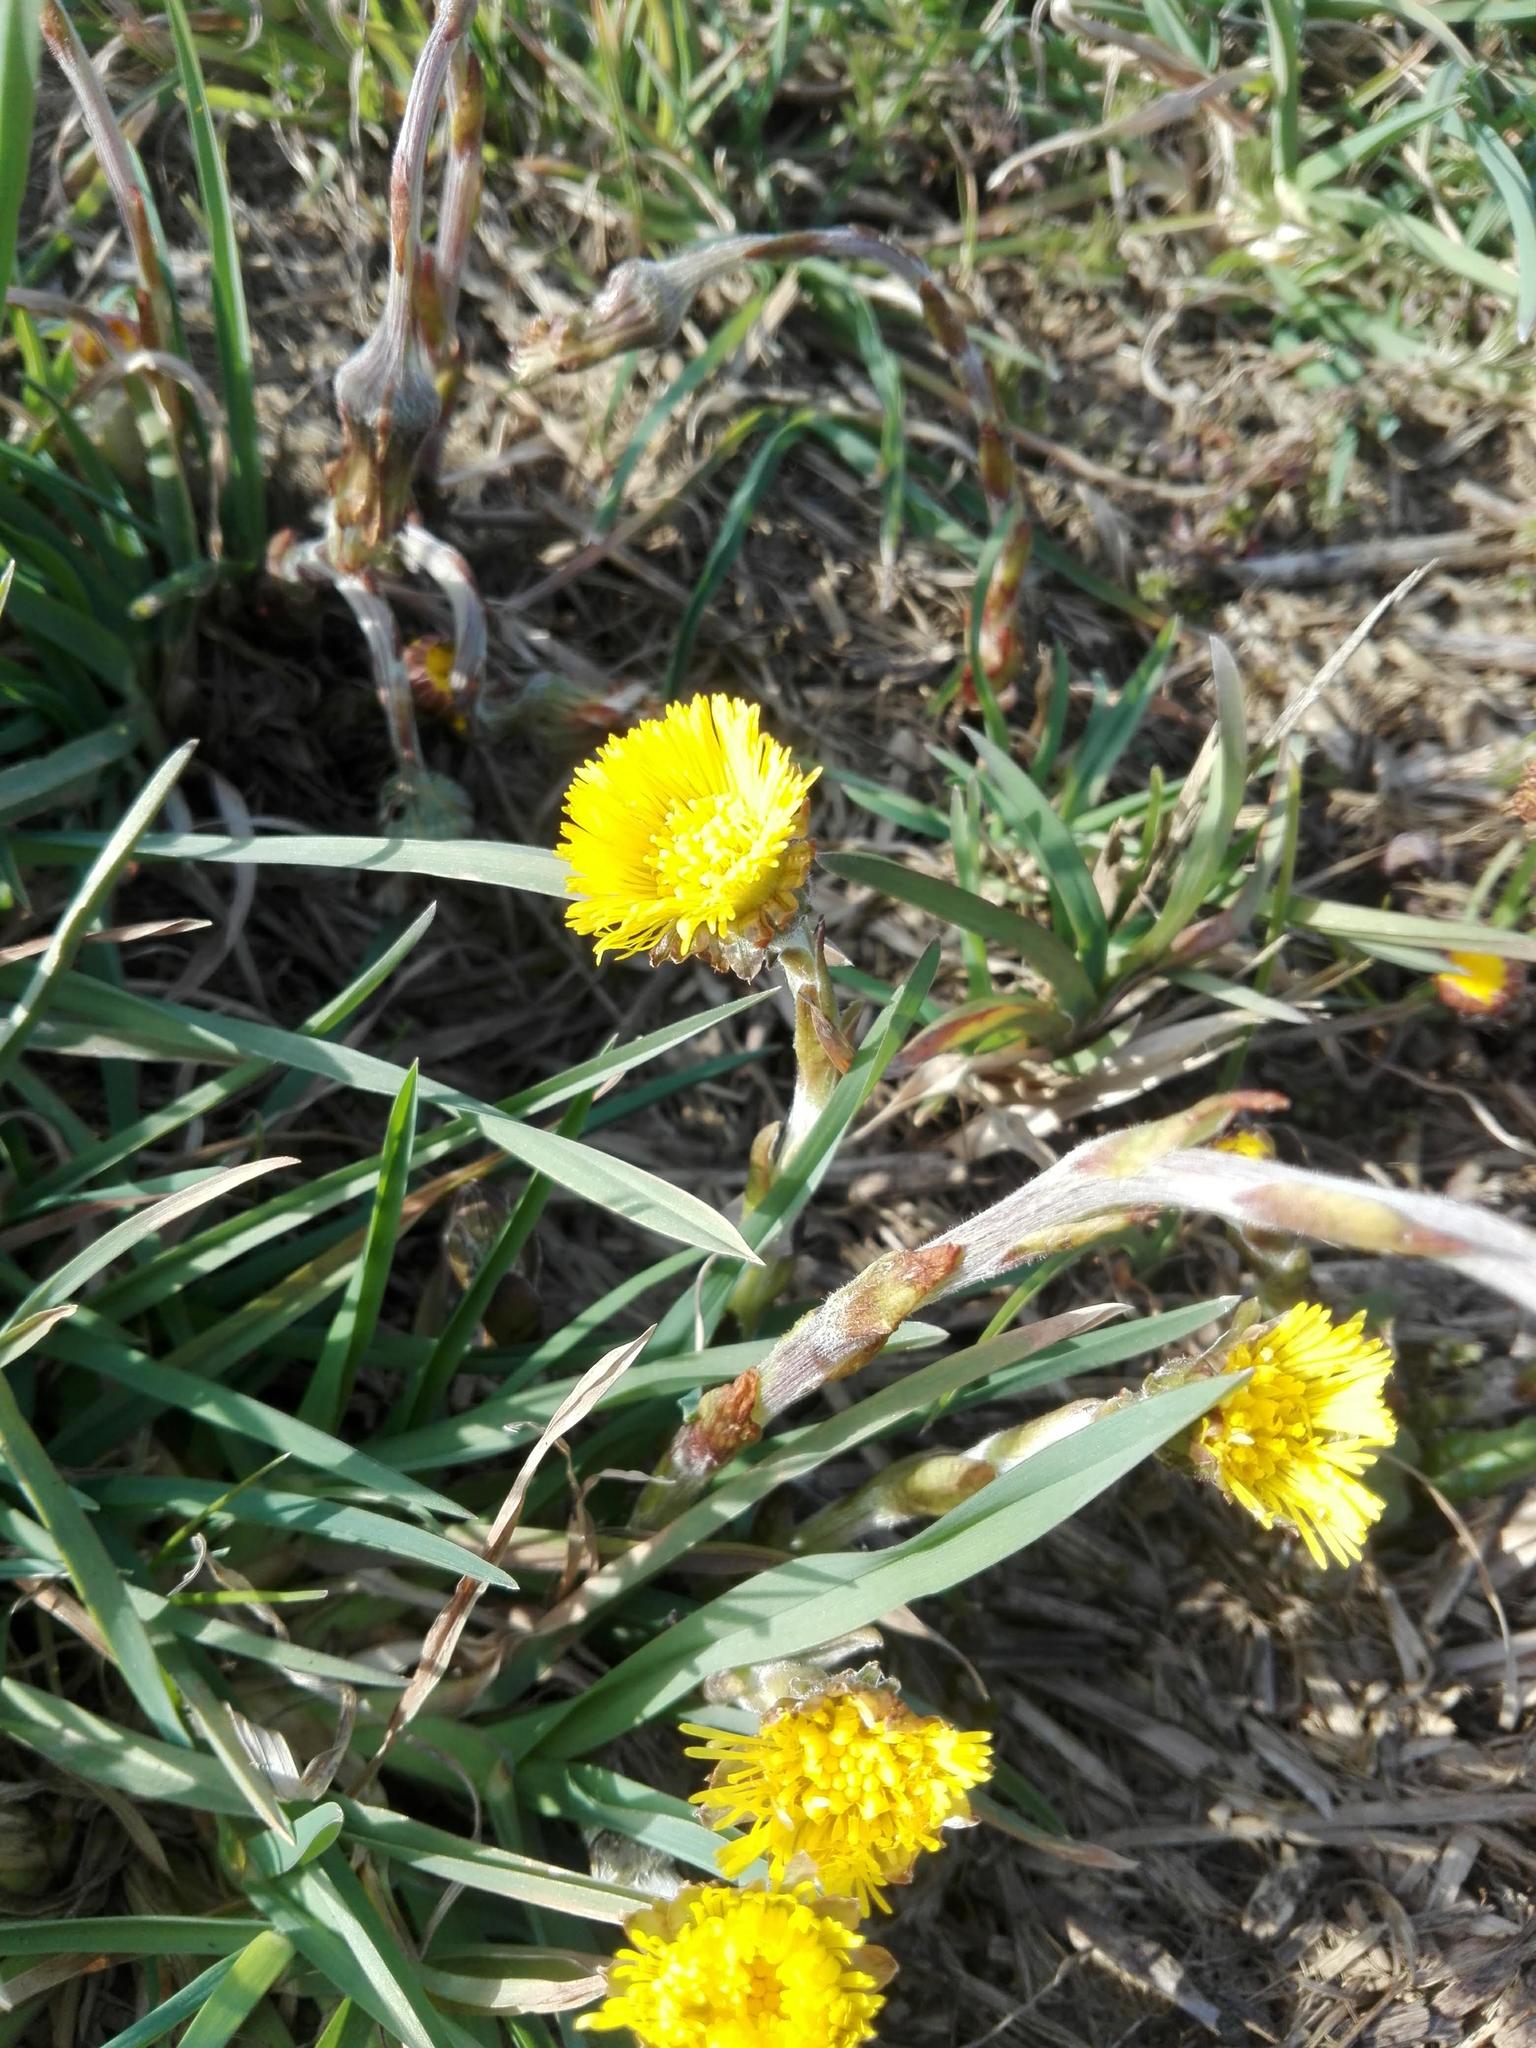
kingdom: Plantae
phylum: Tracheophyta
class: Magnoliopsida
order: Asterales
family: Asteraceae
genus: Tussilago
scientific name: Tussilago farfara
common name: Coltsfoot
